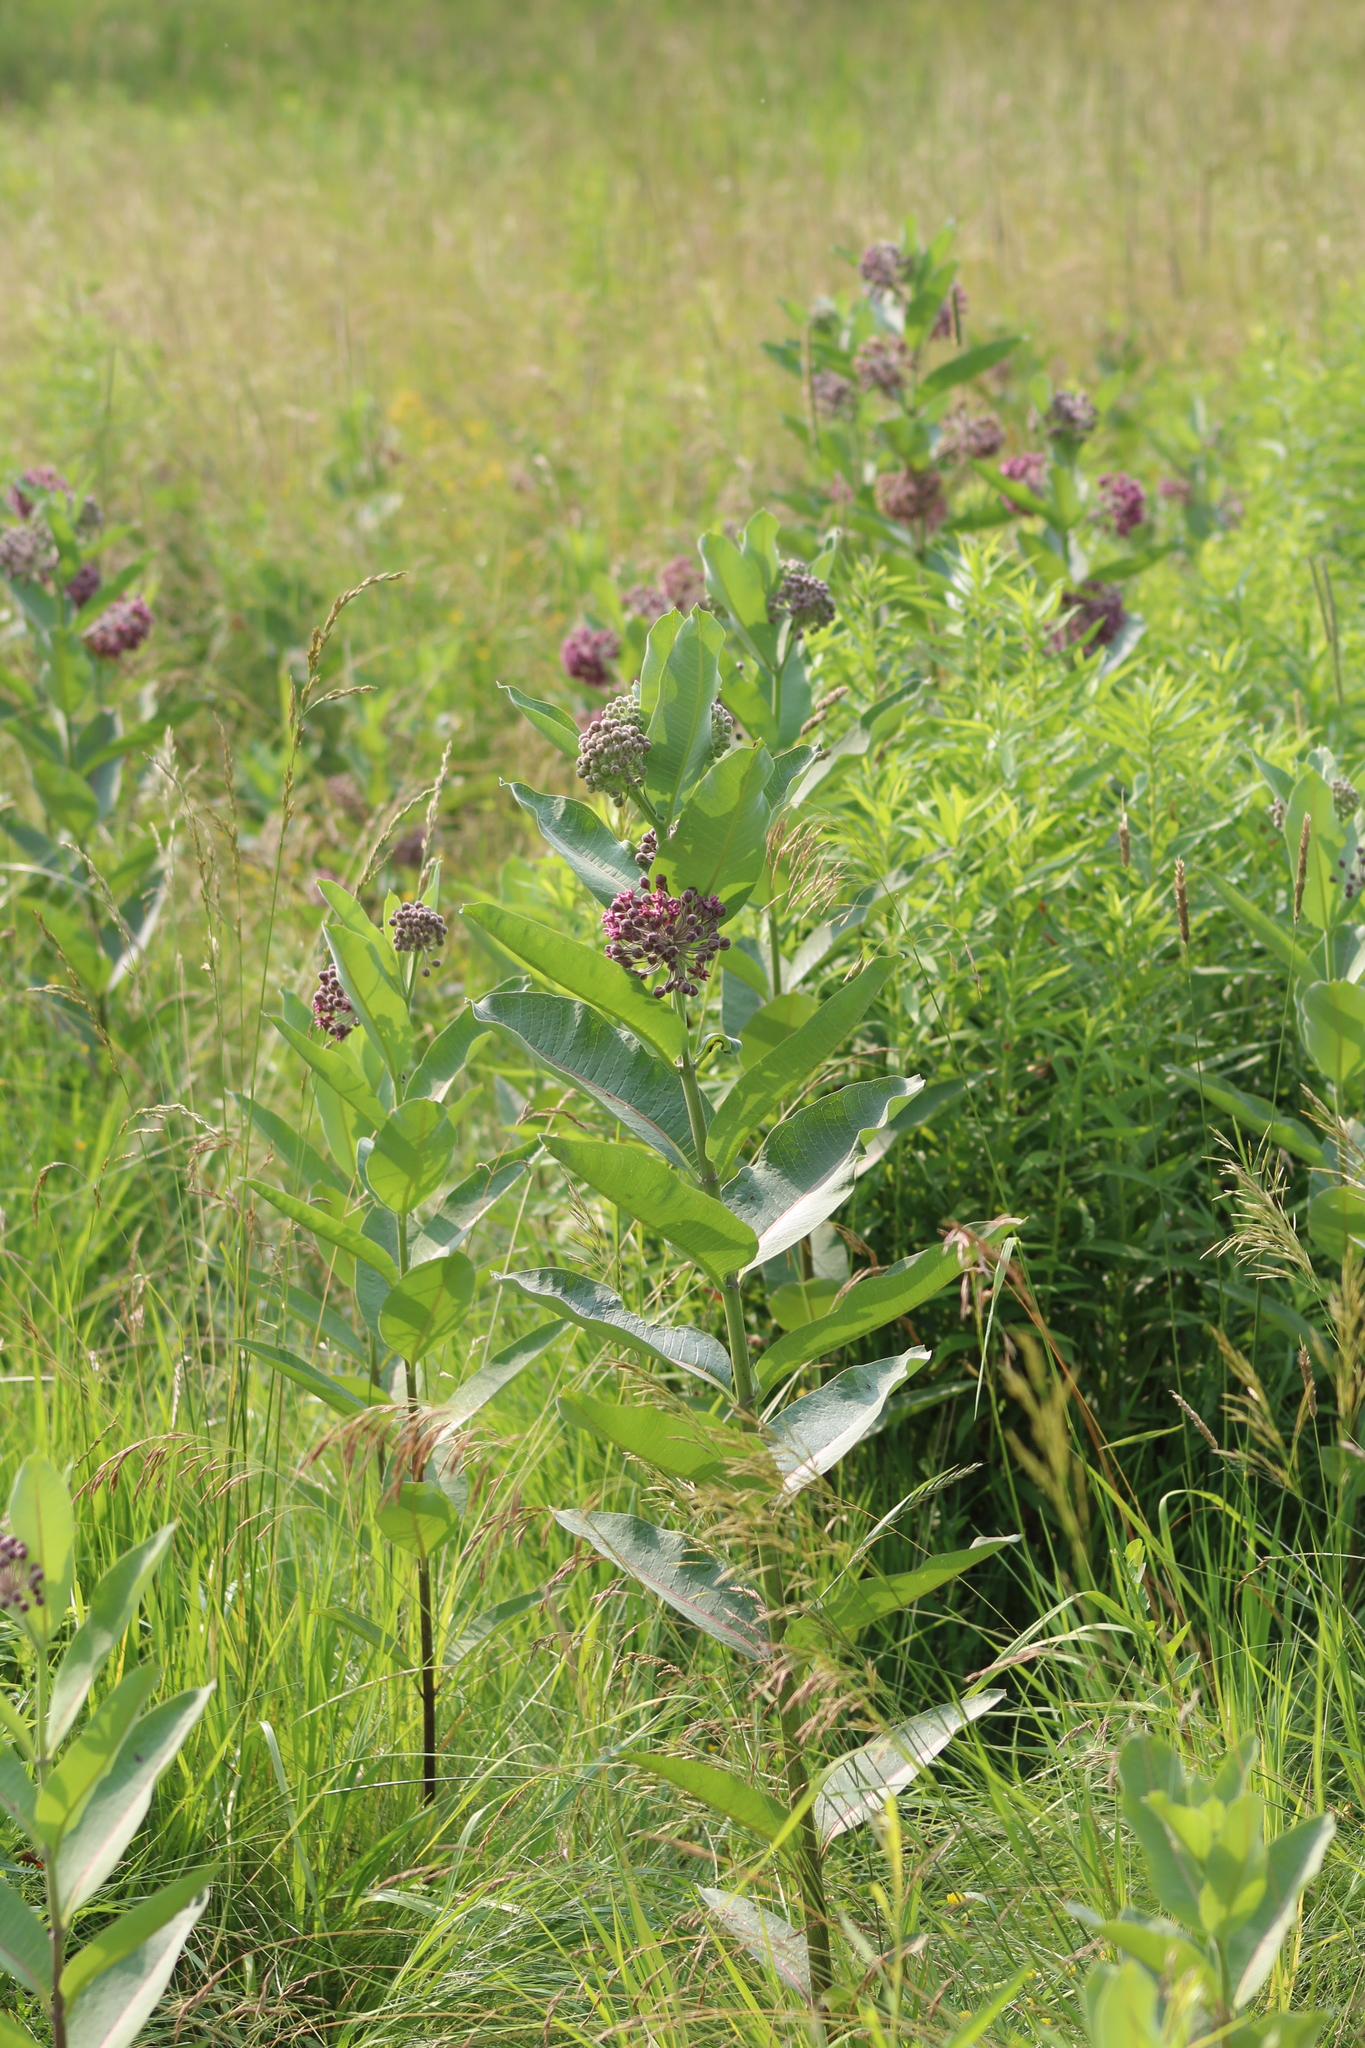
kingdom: Plantae
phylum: Tracheophyta
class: Magnoliopsida
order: Gentianales
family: Apocynaceae
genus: Asclepias
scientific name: Asclepias syriaca
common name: Common milkweed
